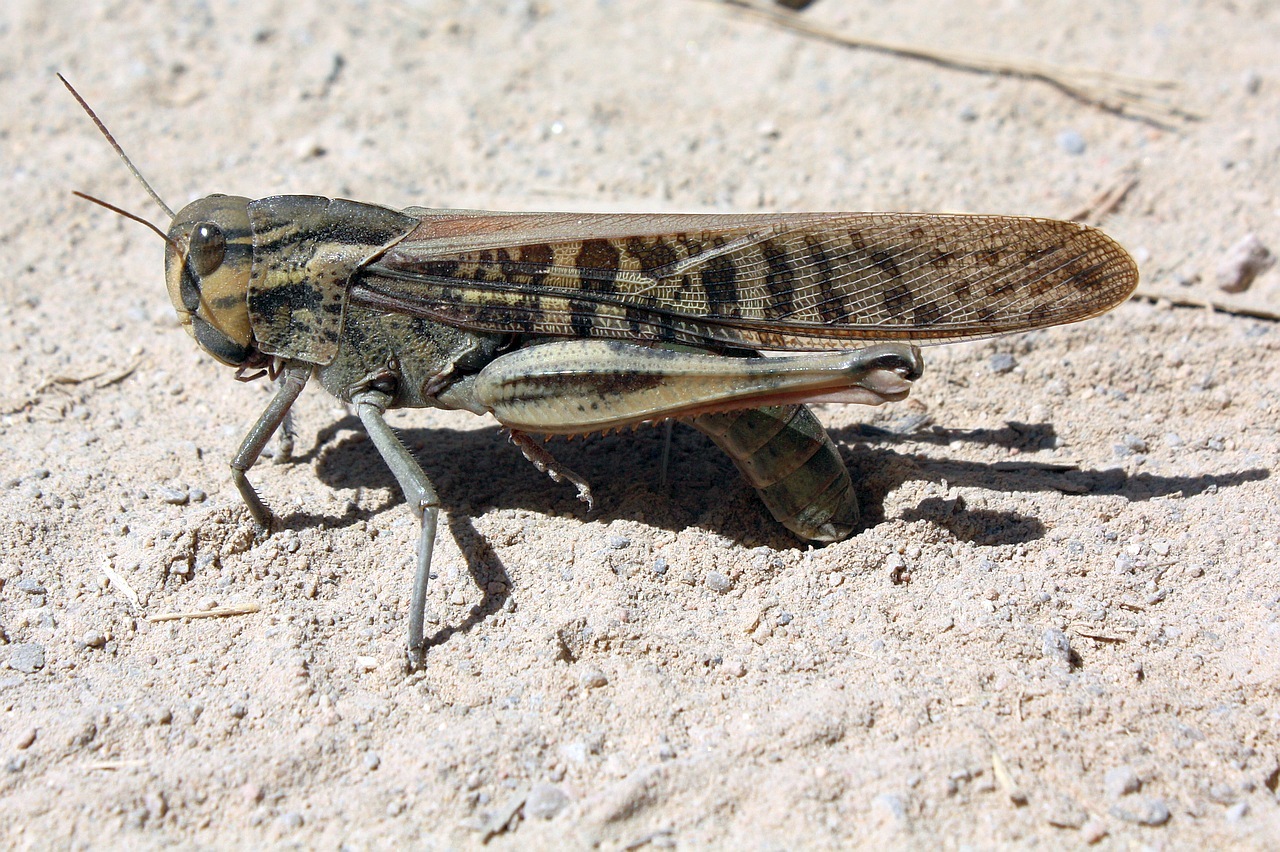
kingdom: Animalia
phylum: Arthropoda
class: Insecta
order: Orthoptera
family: Acrididae
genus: Locusta
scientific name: Locusta migratoria
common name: Migratory locust
